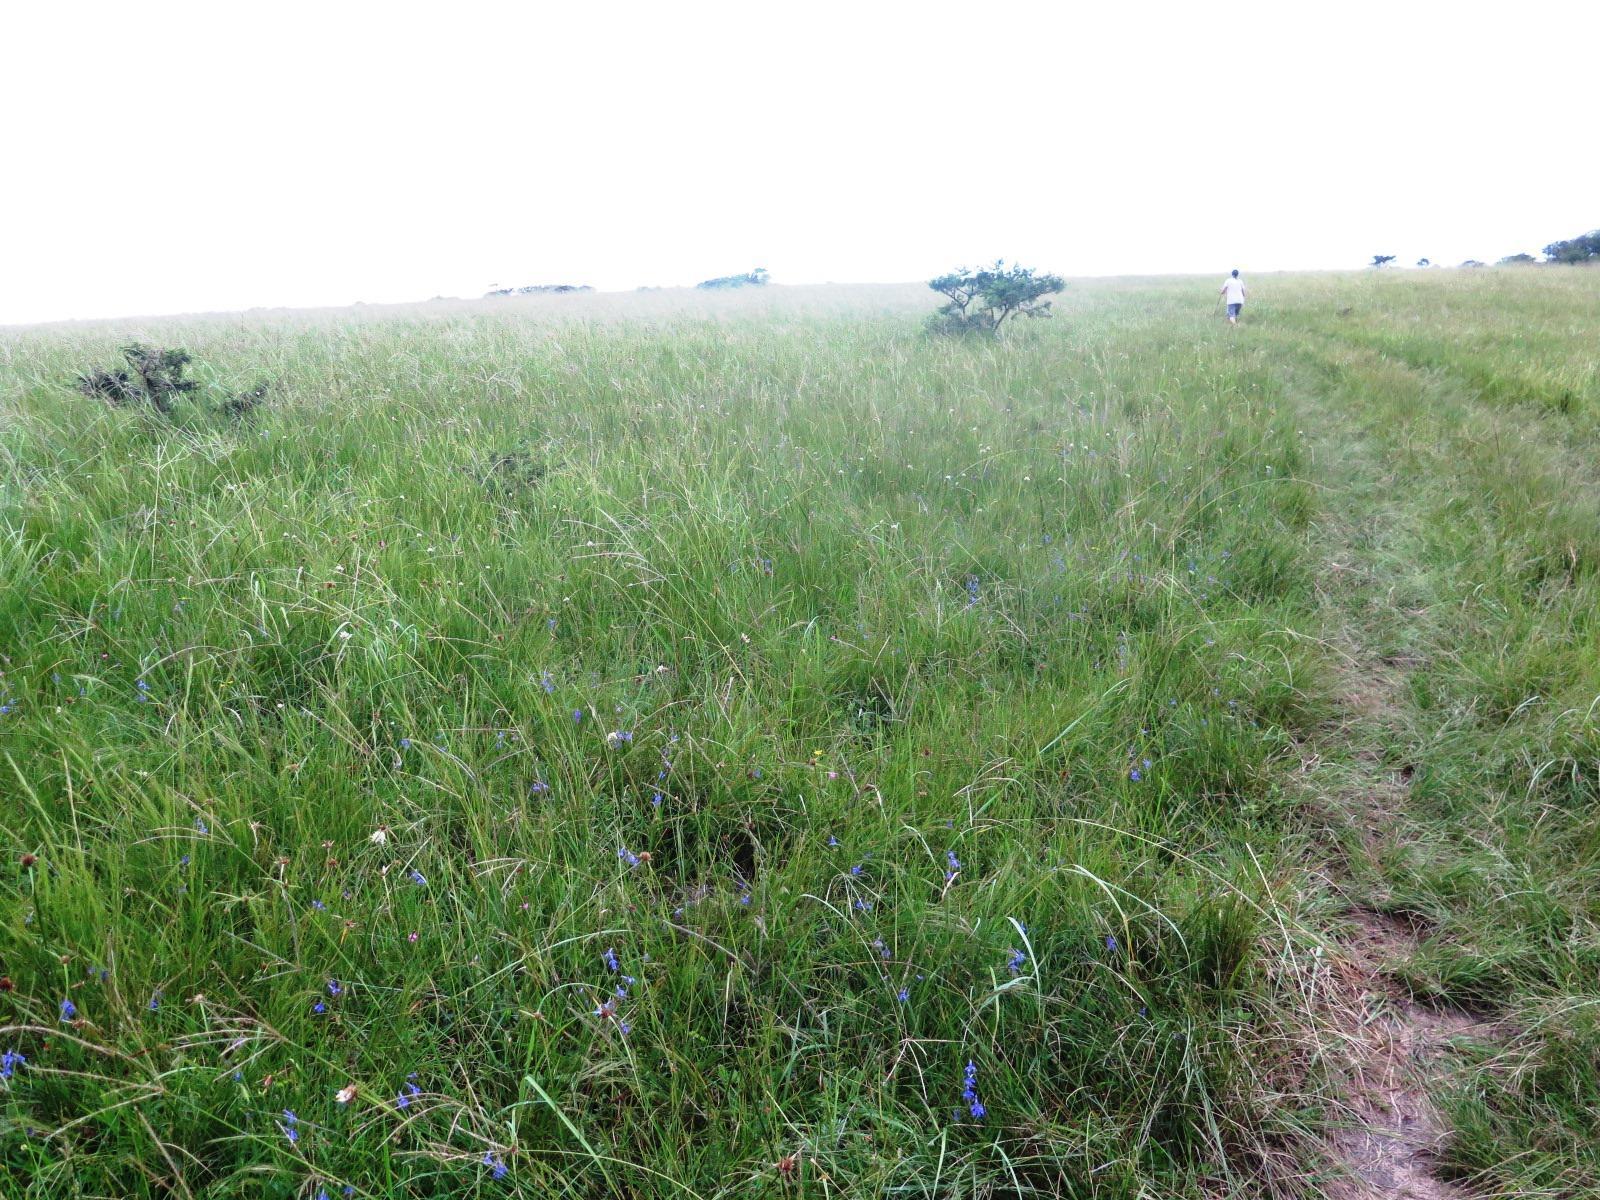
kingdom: Plantae
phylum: Tracheophyta
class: Liliopsida
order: Poales
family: Cyperaceae
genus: Cyperus
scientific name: Cyperus niveus
